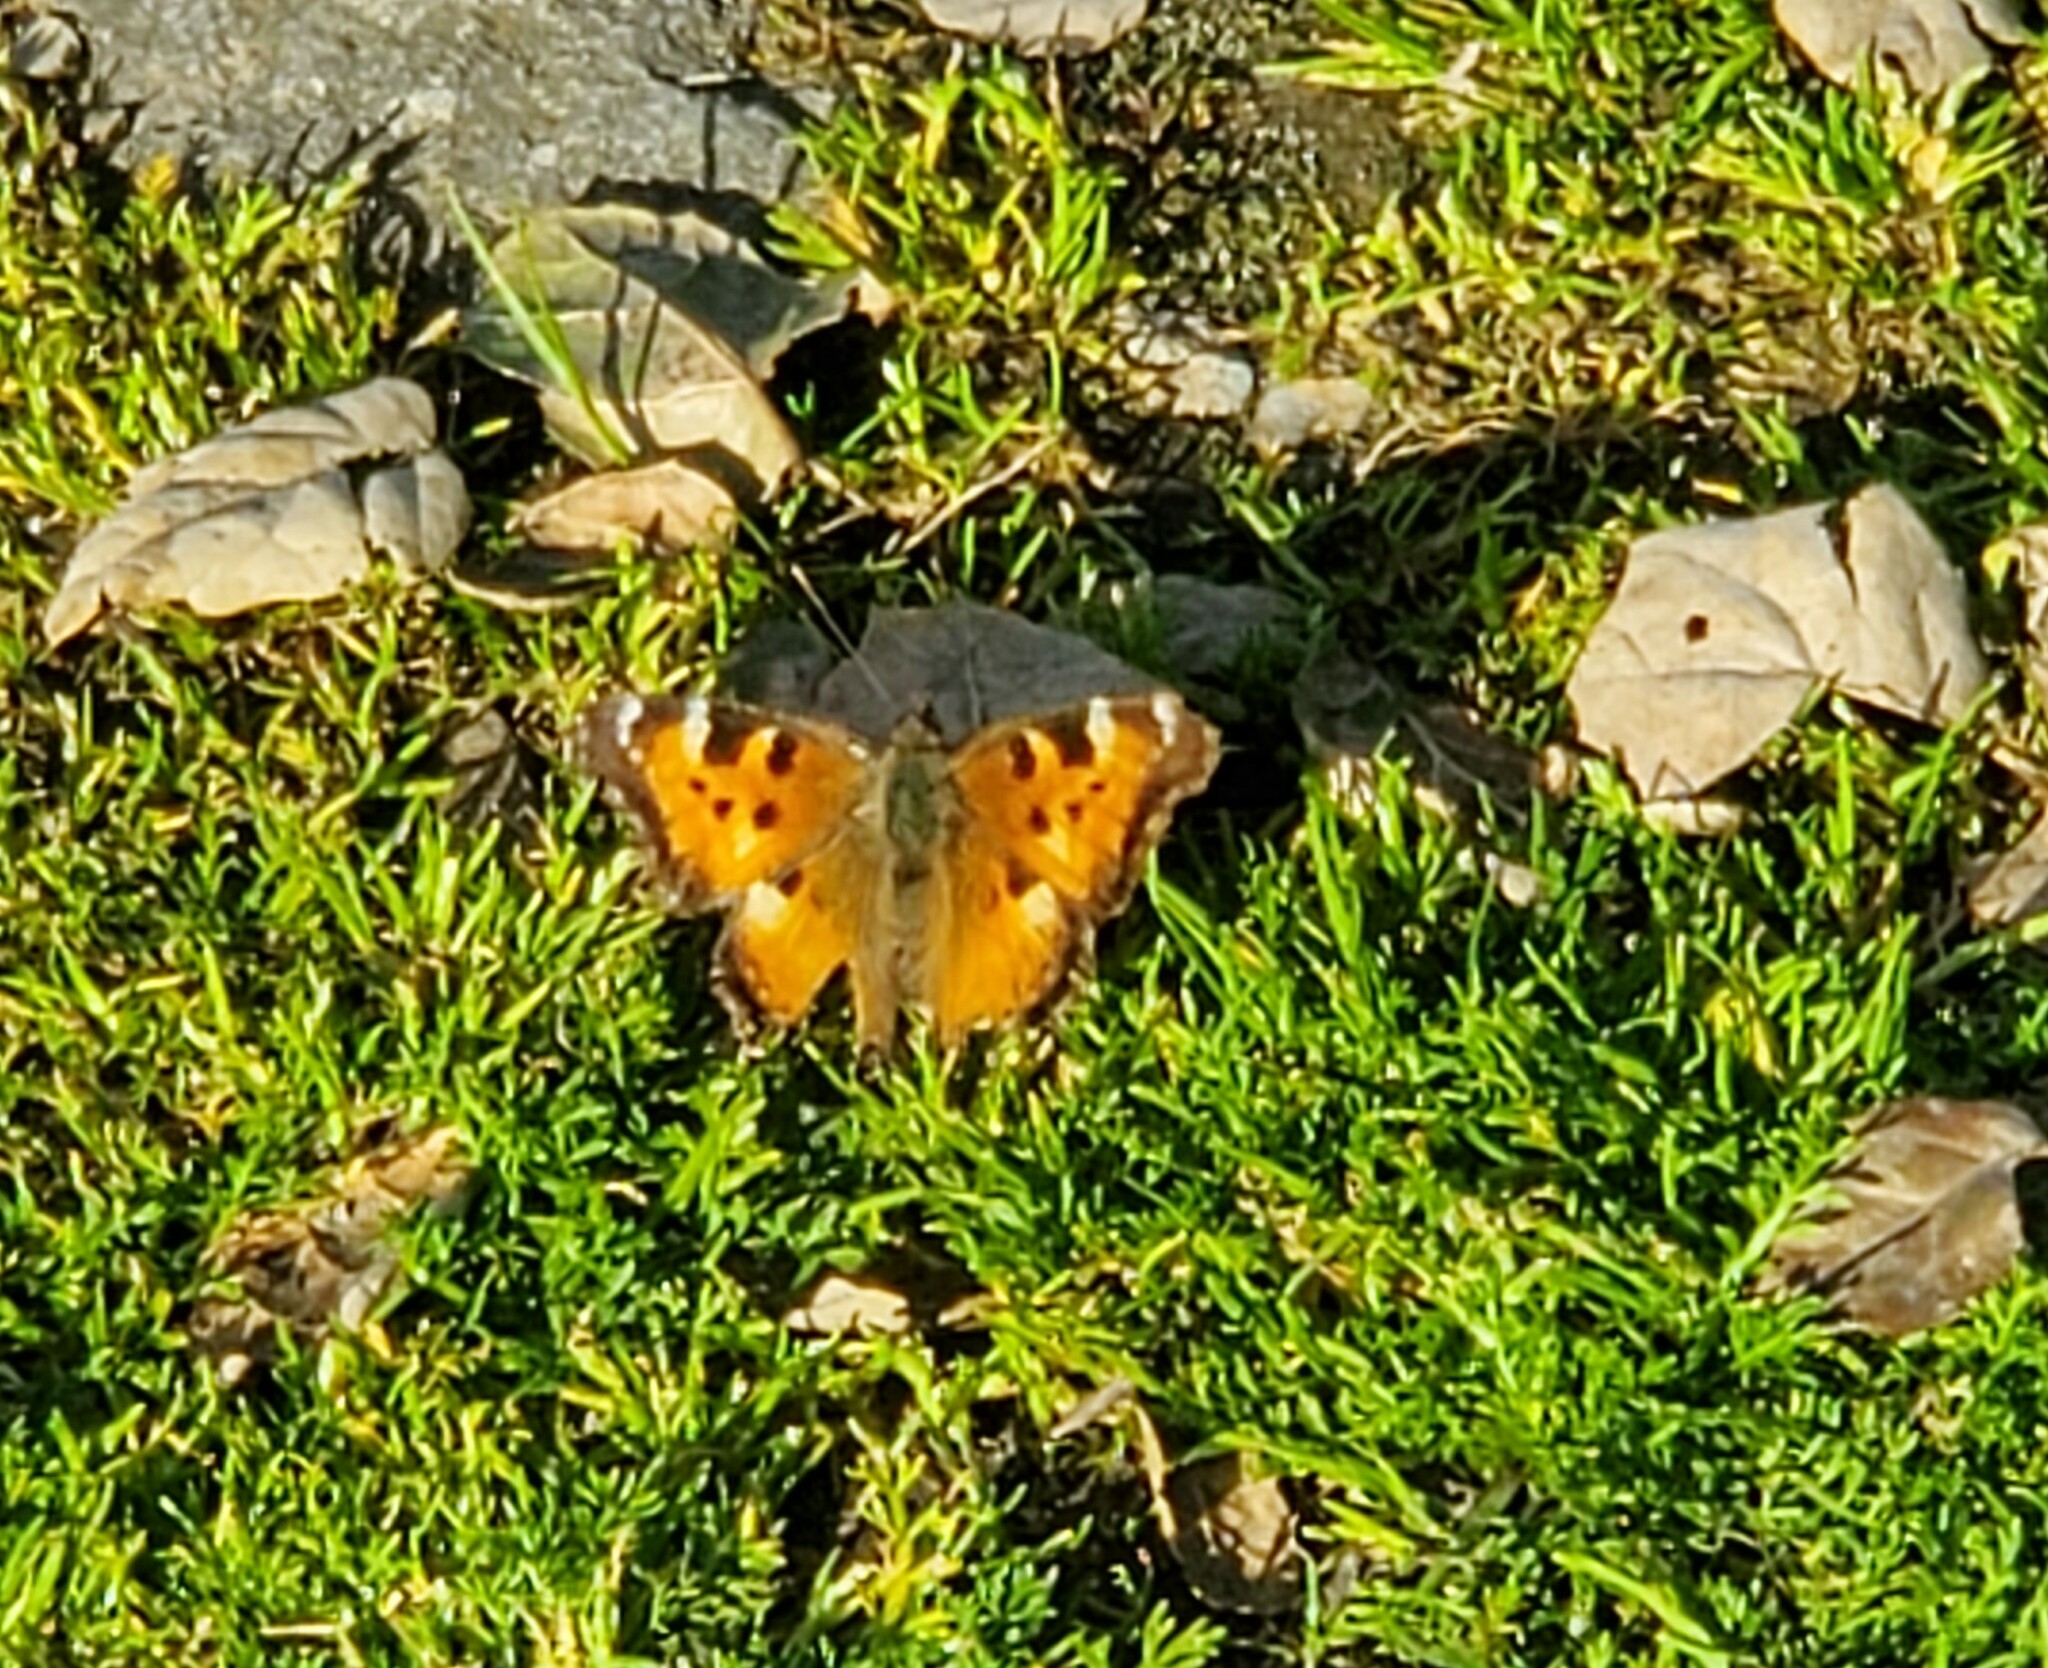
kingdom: Animalia
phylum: Arthropoda
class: Insecta
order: Lepidoptera
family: Nymphalidae
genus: Nymphalis
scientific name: Nymphalis californica
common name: California tortoiseshell
